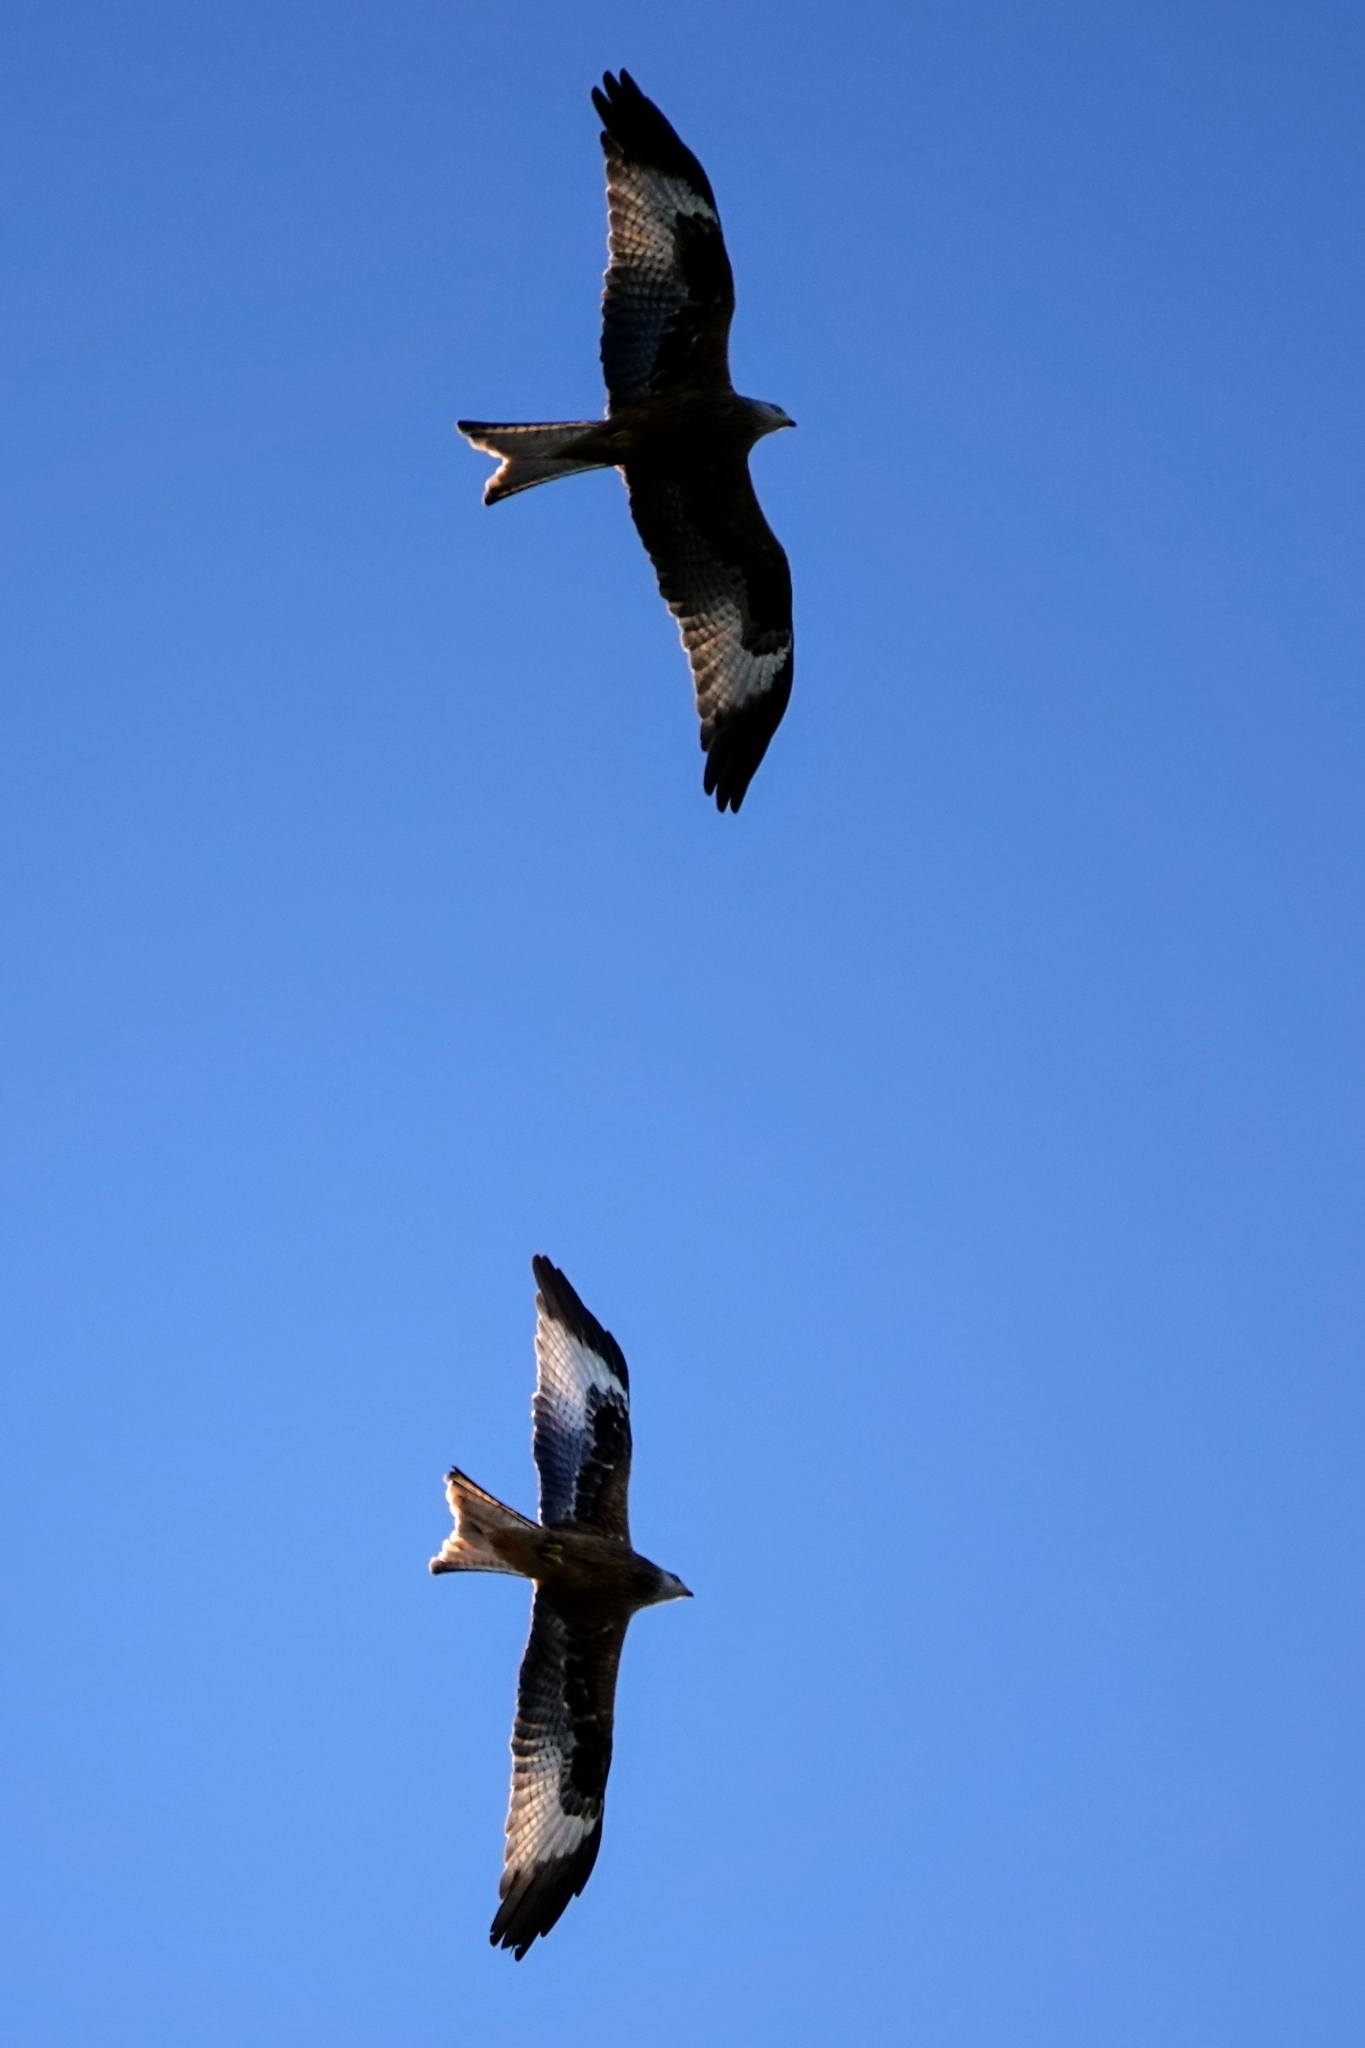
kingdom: Animalia
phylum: Chordata
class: Aves
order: Accipitriformes
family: Accipitridae
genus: Milvus
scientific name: Milvus milvus
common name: Red kite
